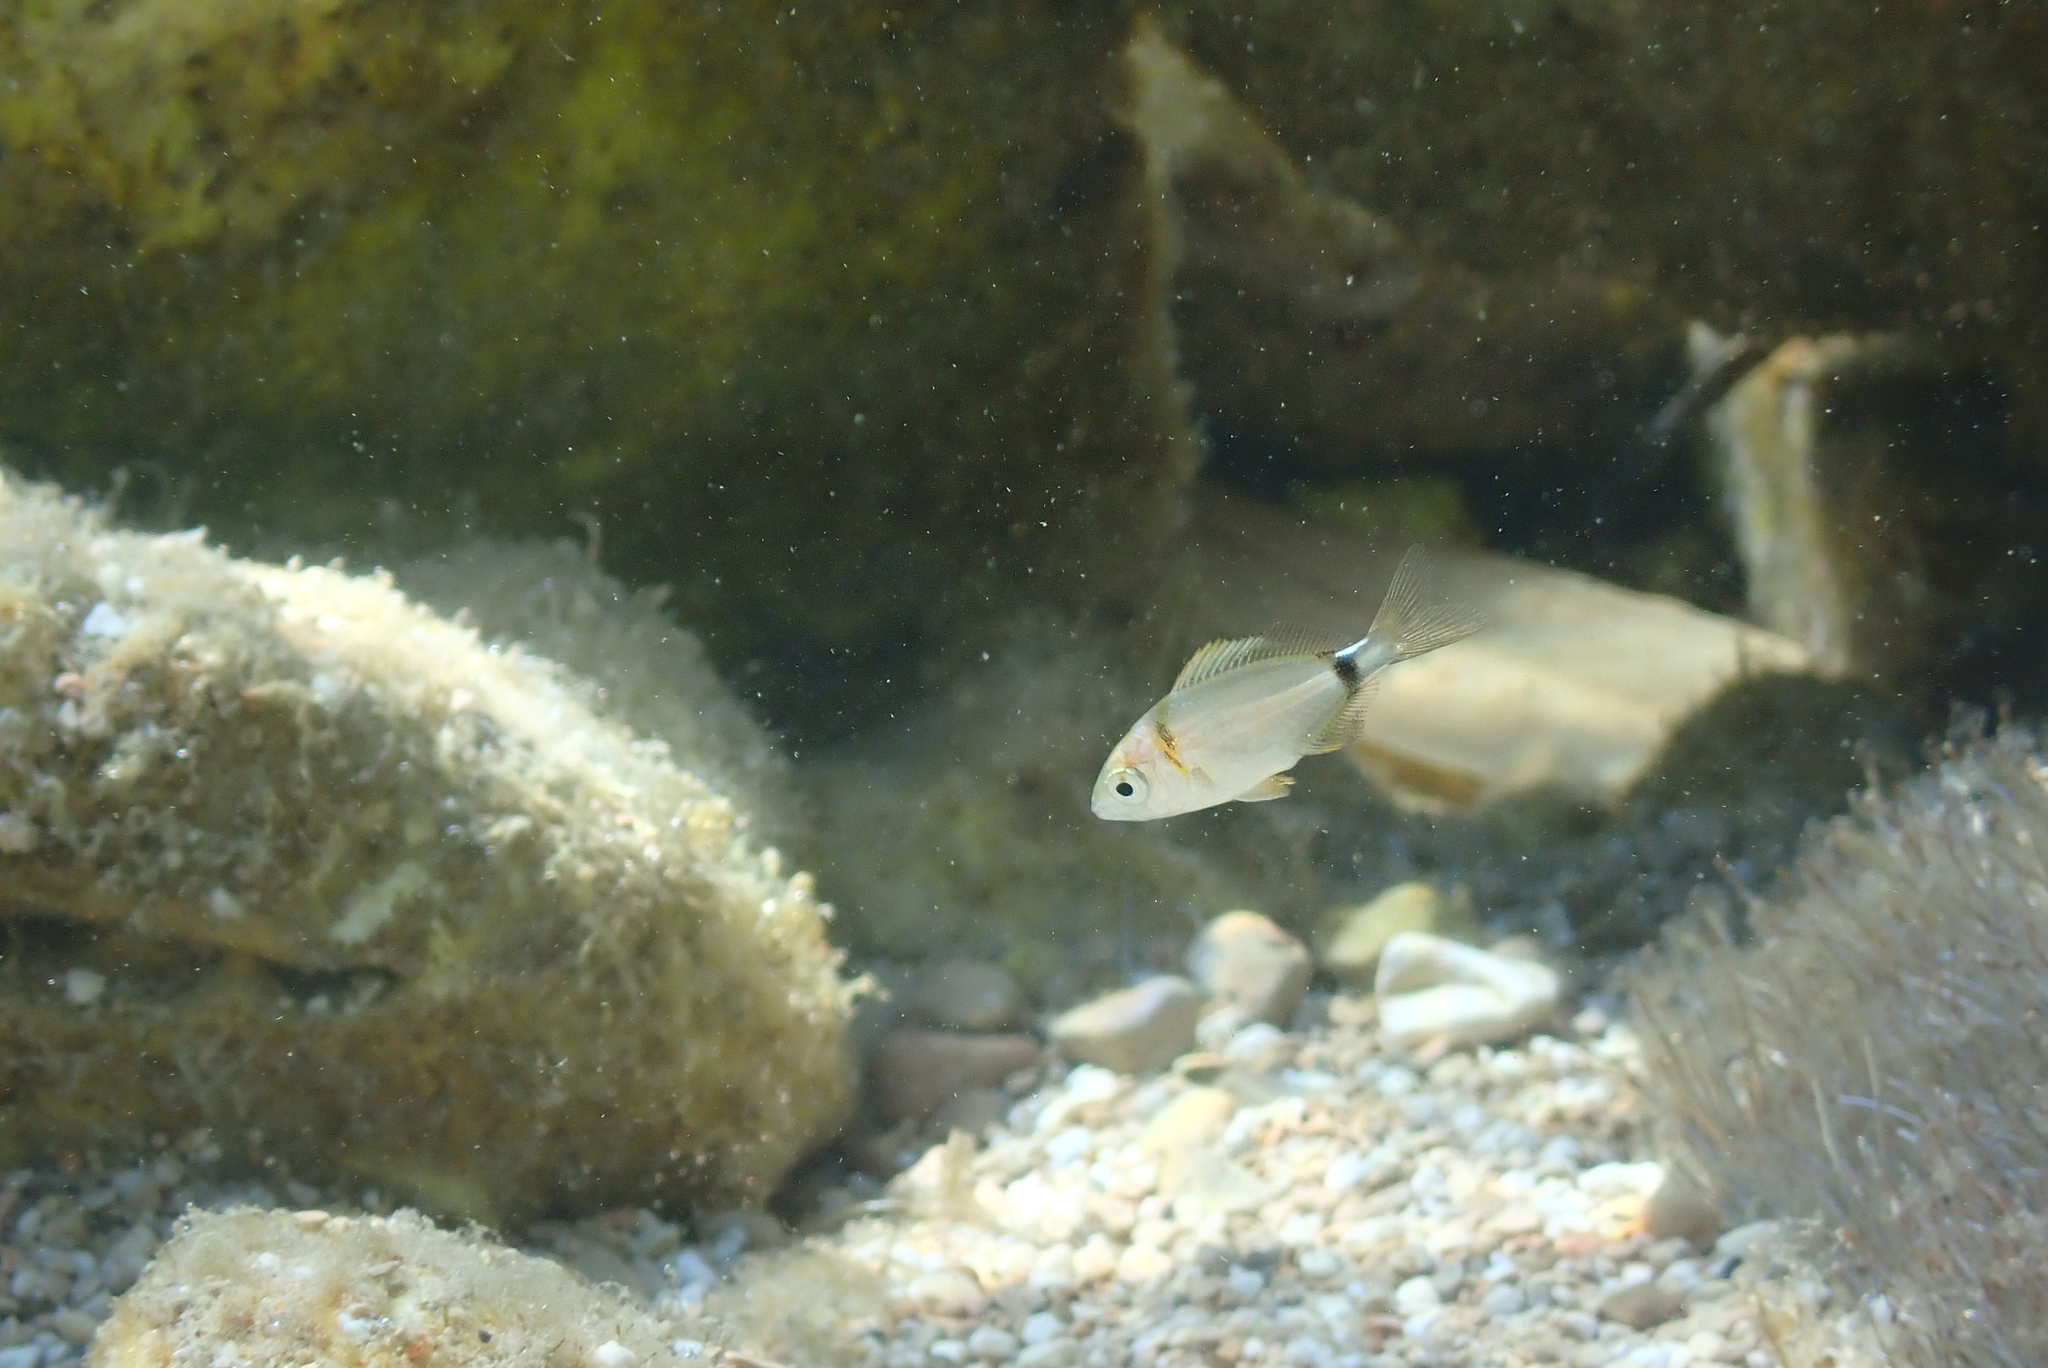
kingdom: Animalia
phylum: Chordata
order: Perciformes
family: Sparidae
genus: Diplodus
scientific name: Diplodus vulgaris
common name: Common two-banded seabream
